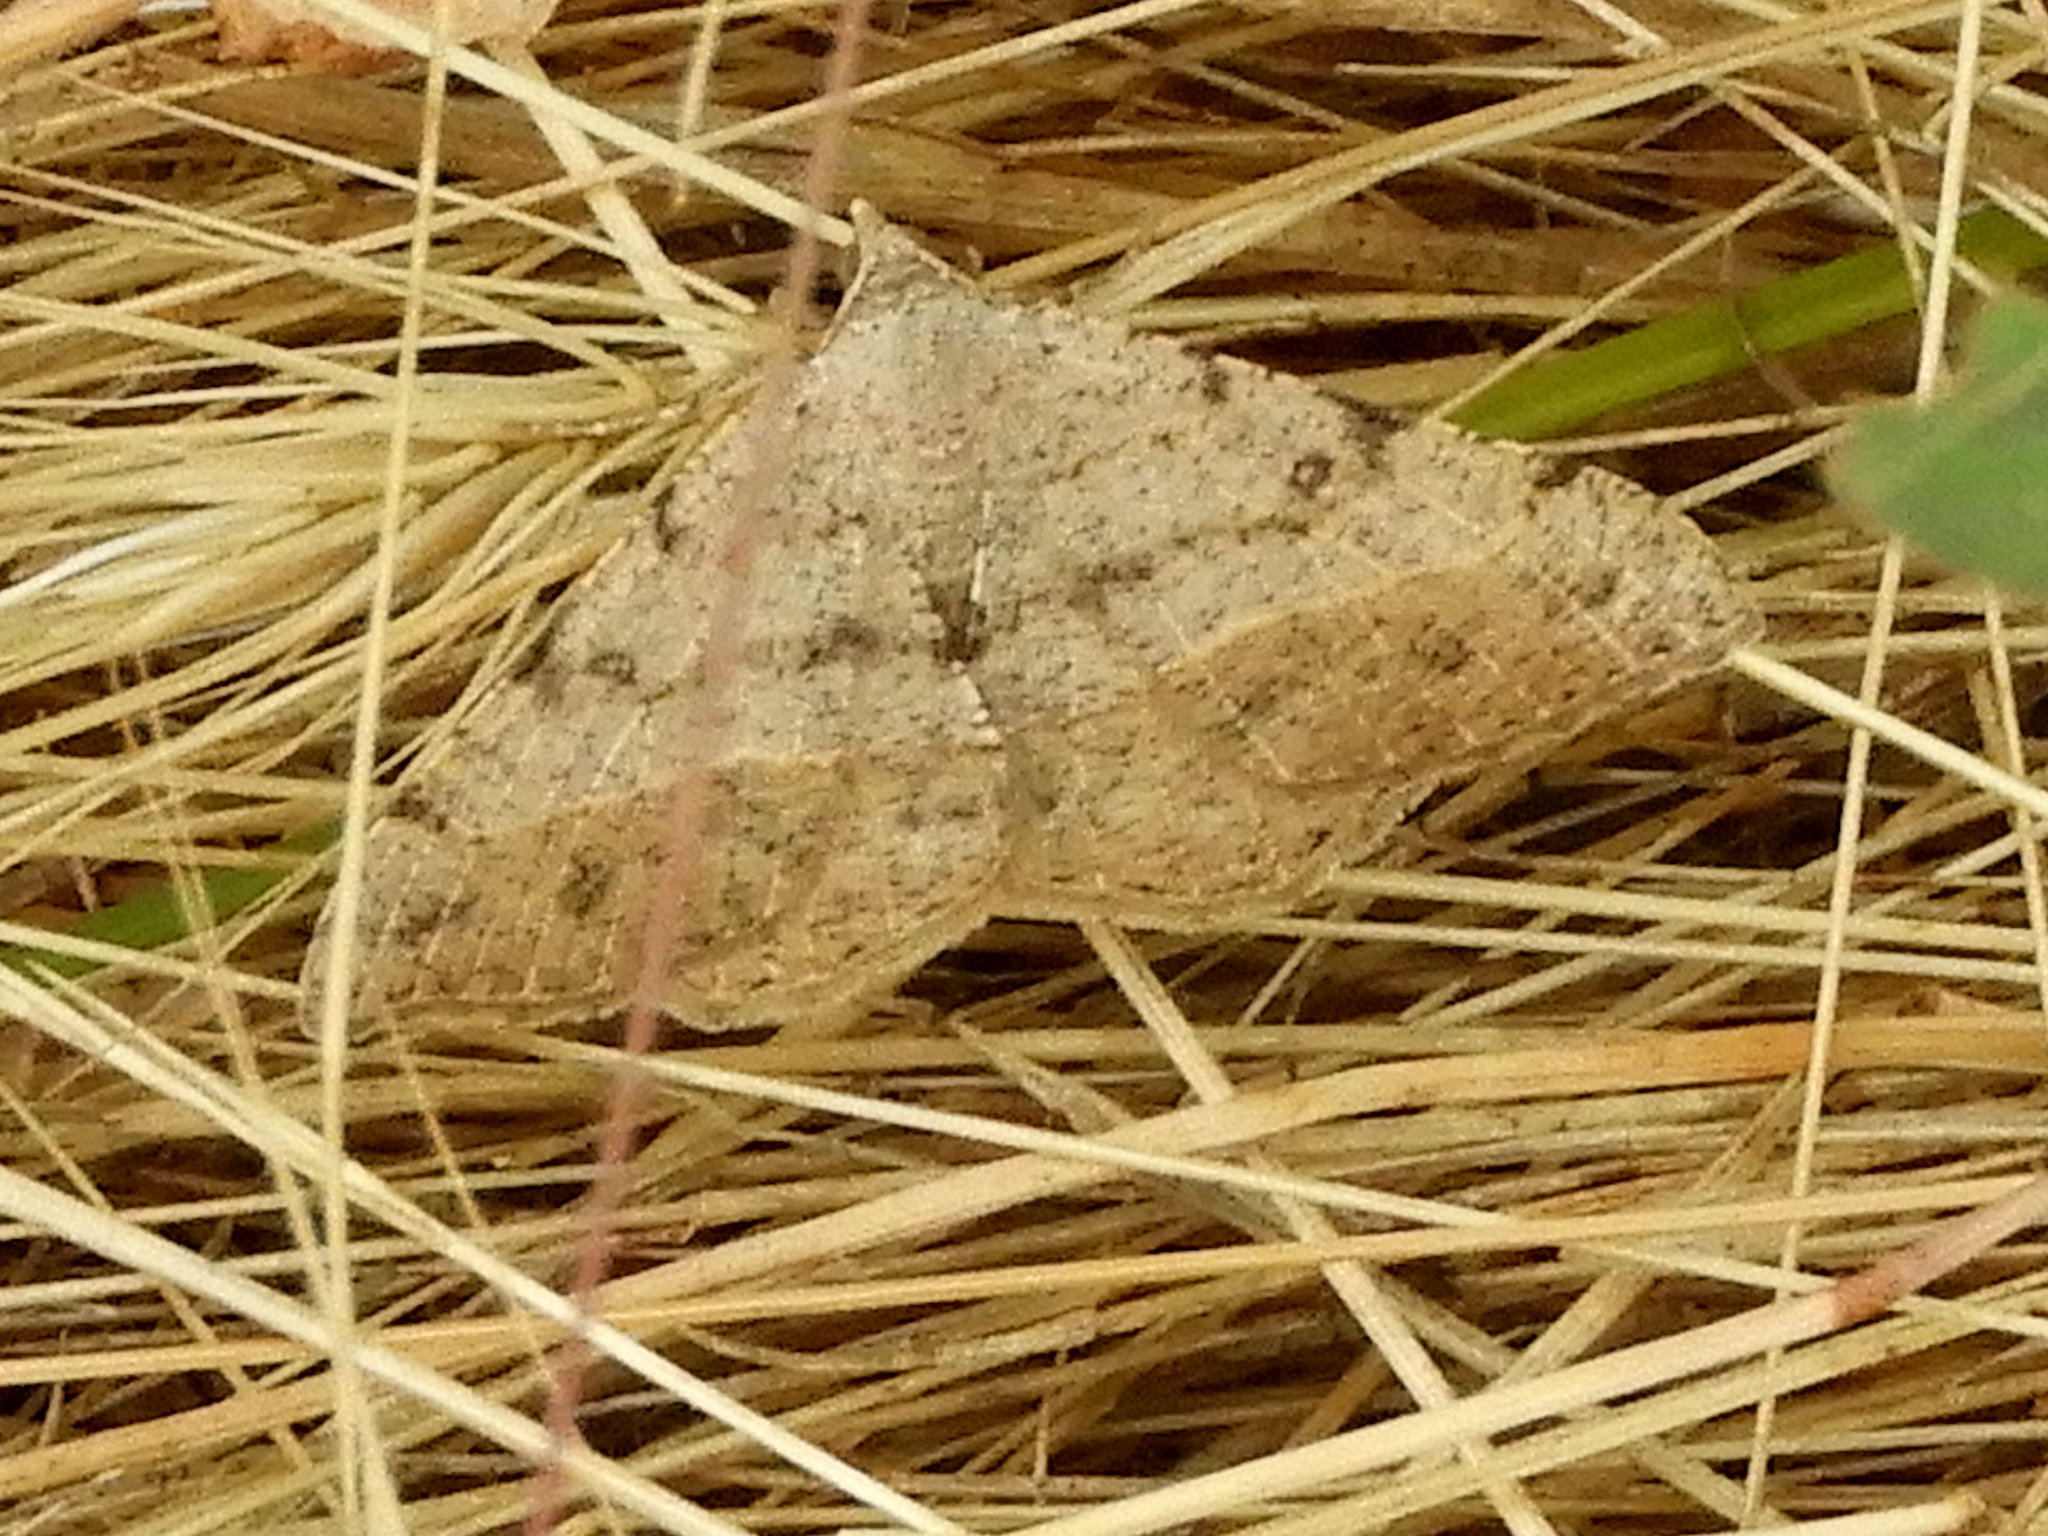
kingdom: Animalia
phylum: Arthropoda
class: Insecta
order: Lepidoptera
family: Geometridae
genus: Digrammia
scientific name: Digrammia irrorata
